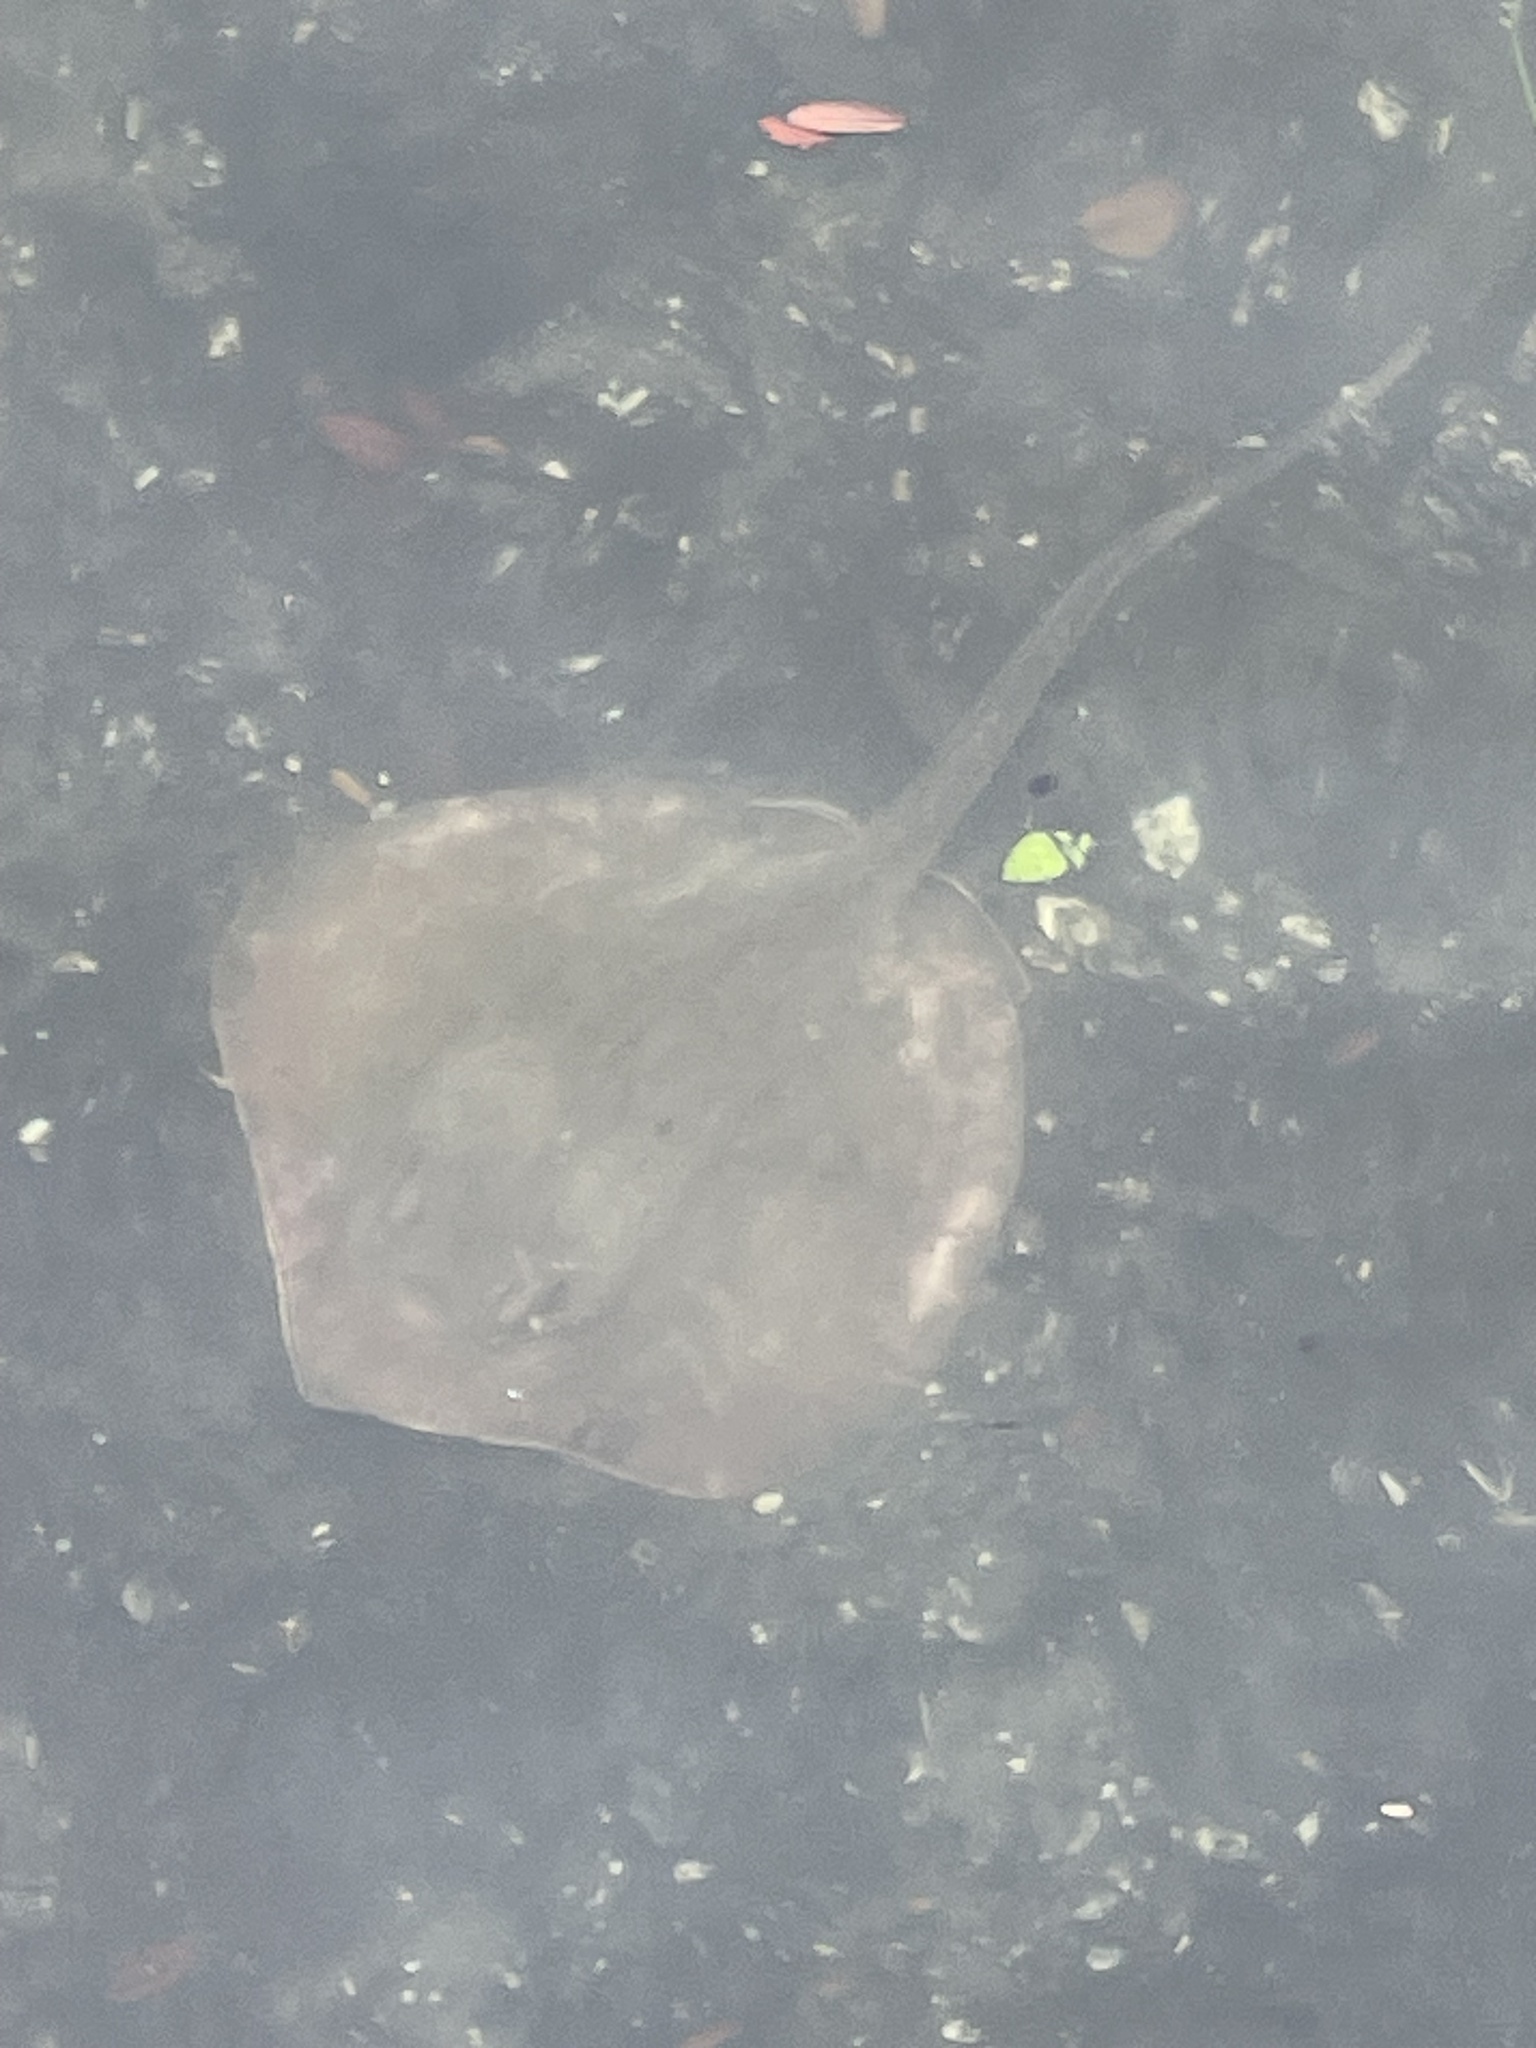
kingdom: Animalia
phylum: Chordata
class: Elasmobranchii
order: Myliobatiformes
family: Dasyatidae
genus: Hypanus
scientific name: Hypanus sabinus
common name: Atlantic stingray
